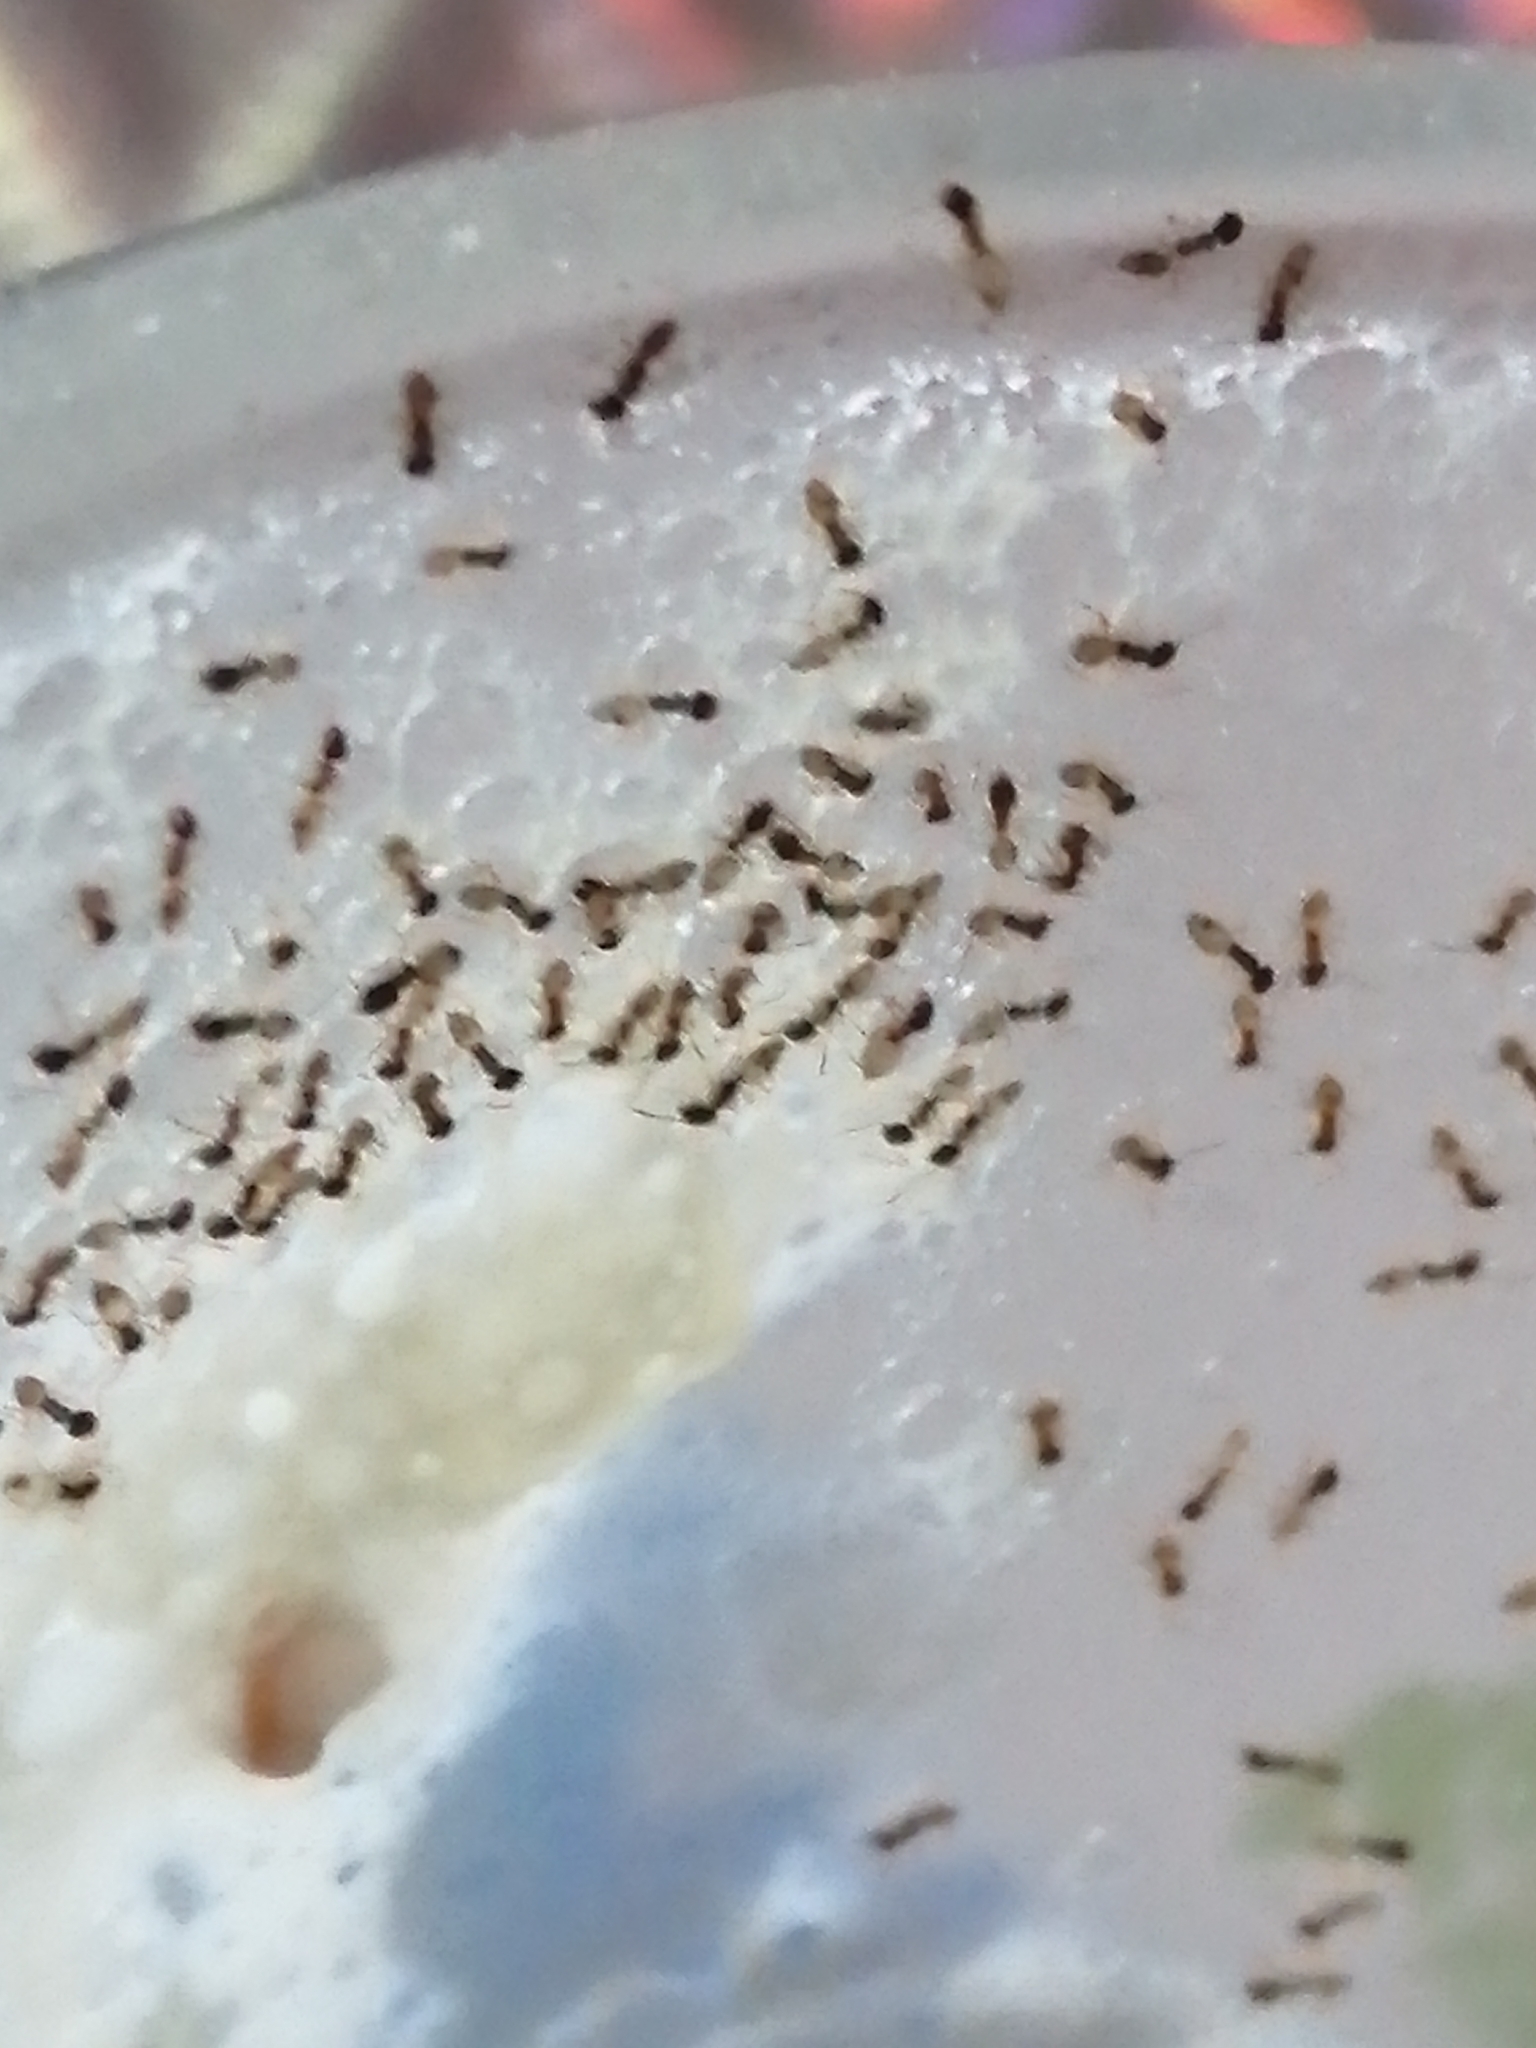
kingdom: Animalia
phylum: Arthropoda
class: Insecta
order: Hymenoptera
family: Formicidae
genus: Tapinoma
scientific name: Tapinoma melanocephalum
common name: Ghost ant
